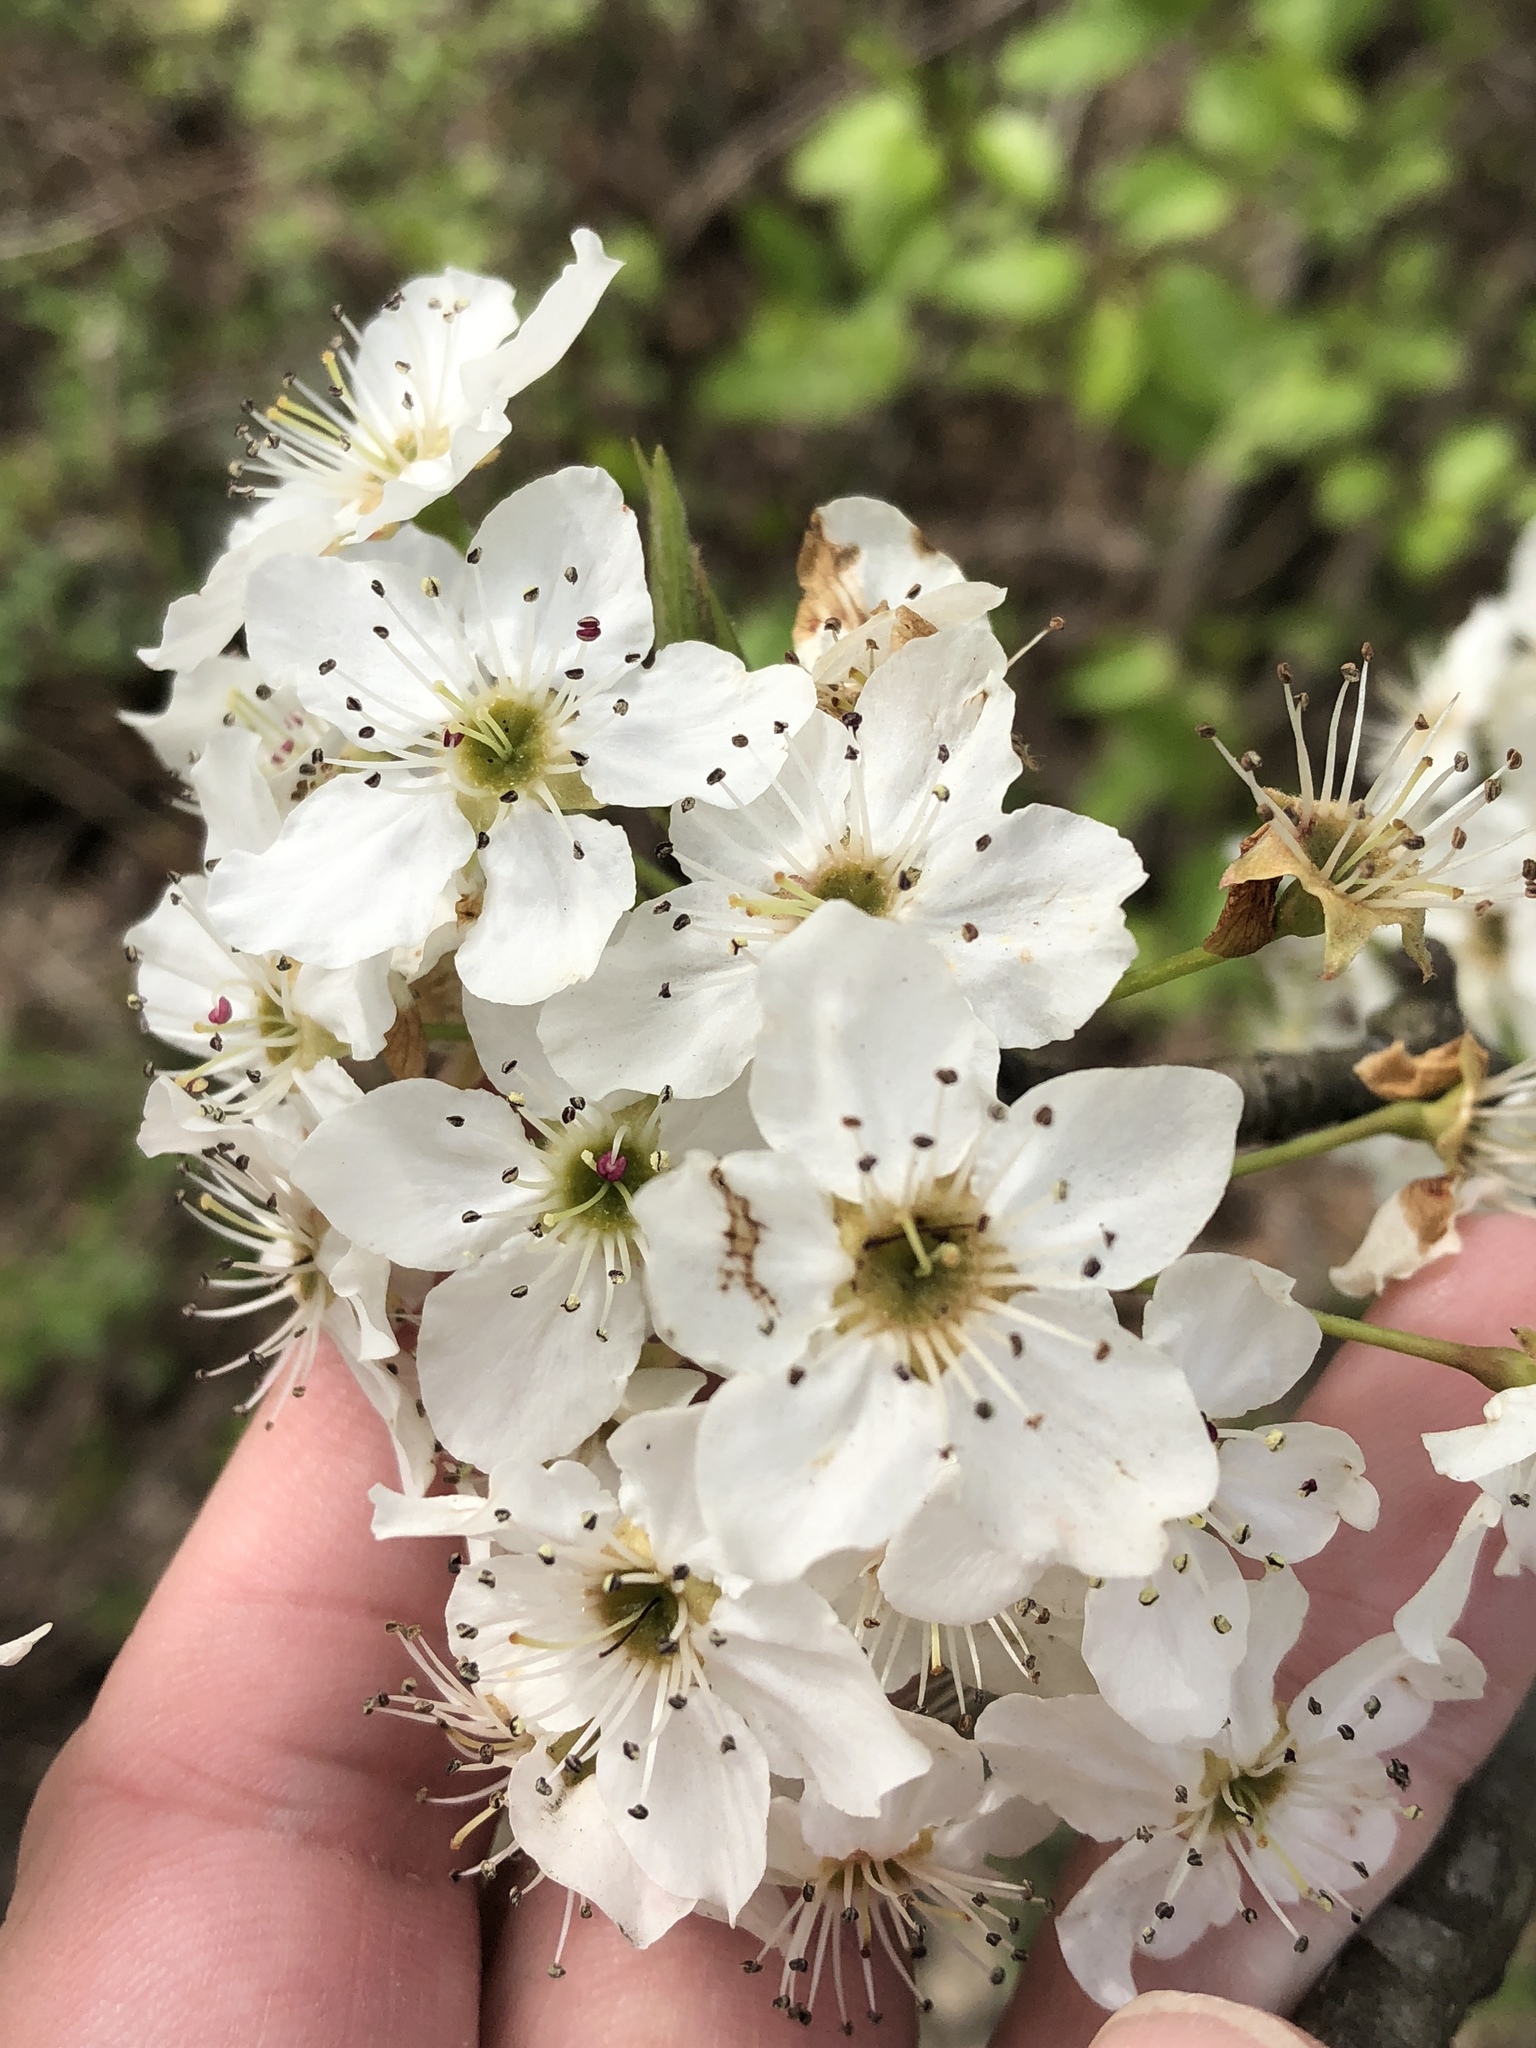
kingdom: Plantae
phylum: Tracheophyta
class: Magnoliopsida
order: Rosales
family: Rosaceae
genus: Pyrus
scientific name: Pyrus calleryana
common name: Callery pear
